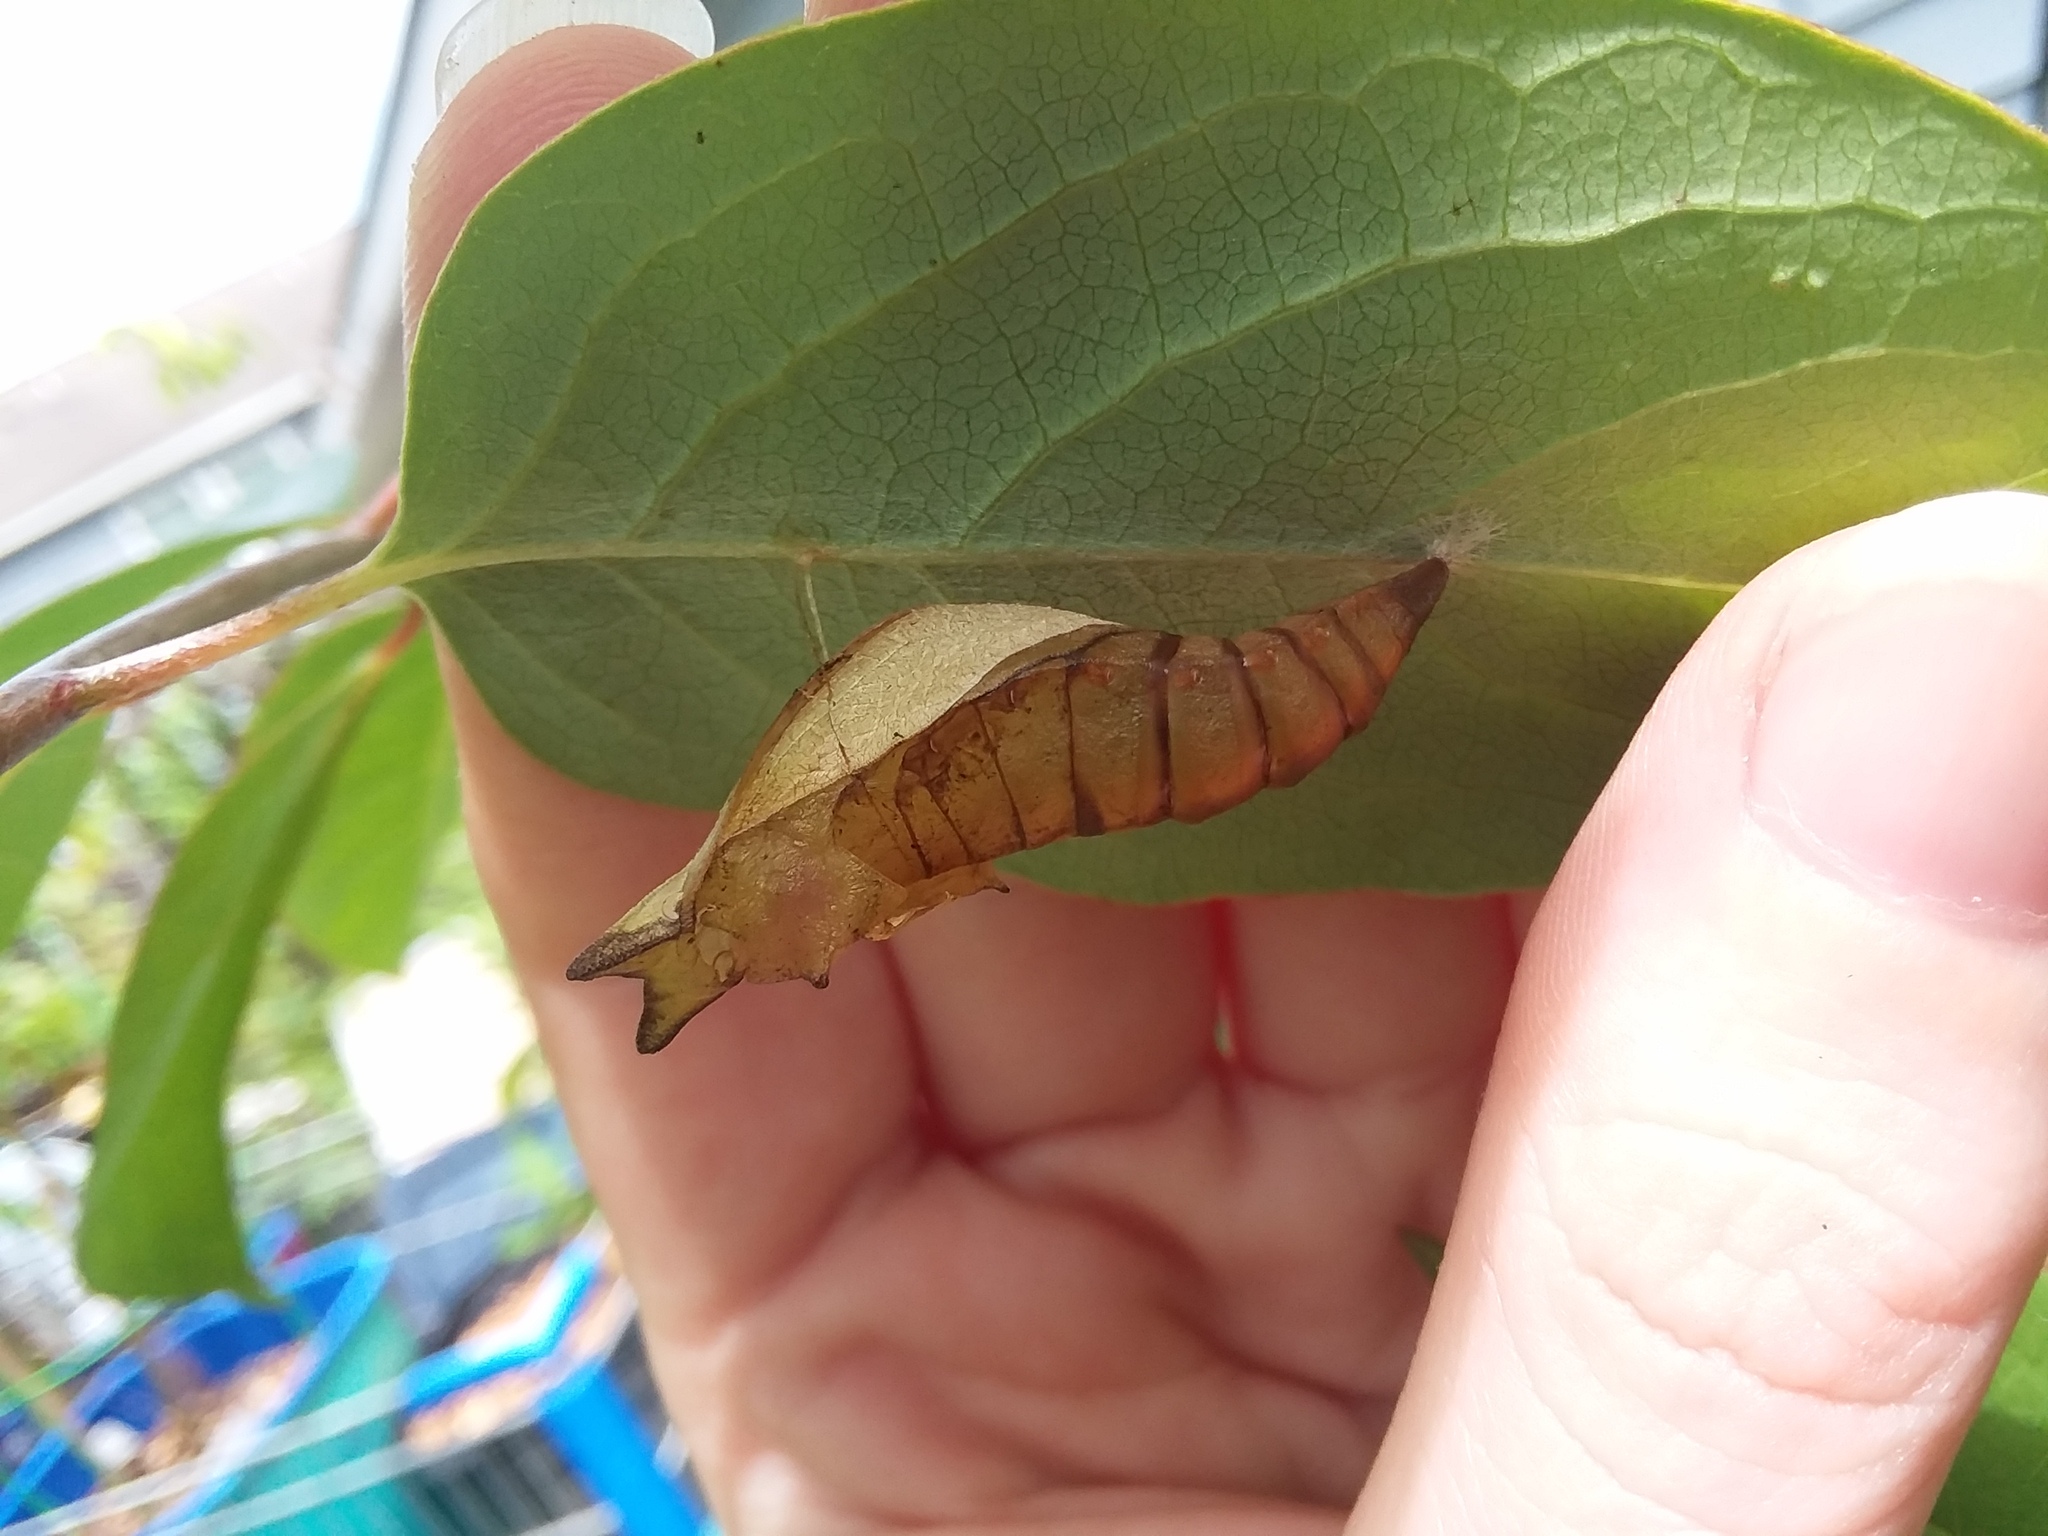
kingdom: Animalia
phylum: Arthropoda
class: Insecta
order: Lepidoptera
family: Papilionidae
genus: Papilio
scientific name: Papilio troilus
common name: Spicebush swallowtail
